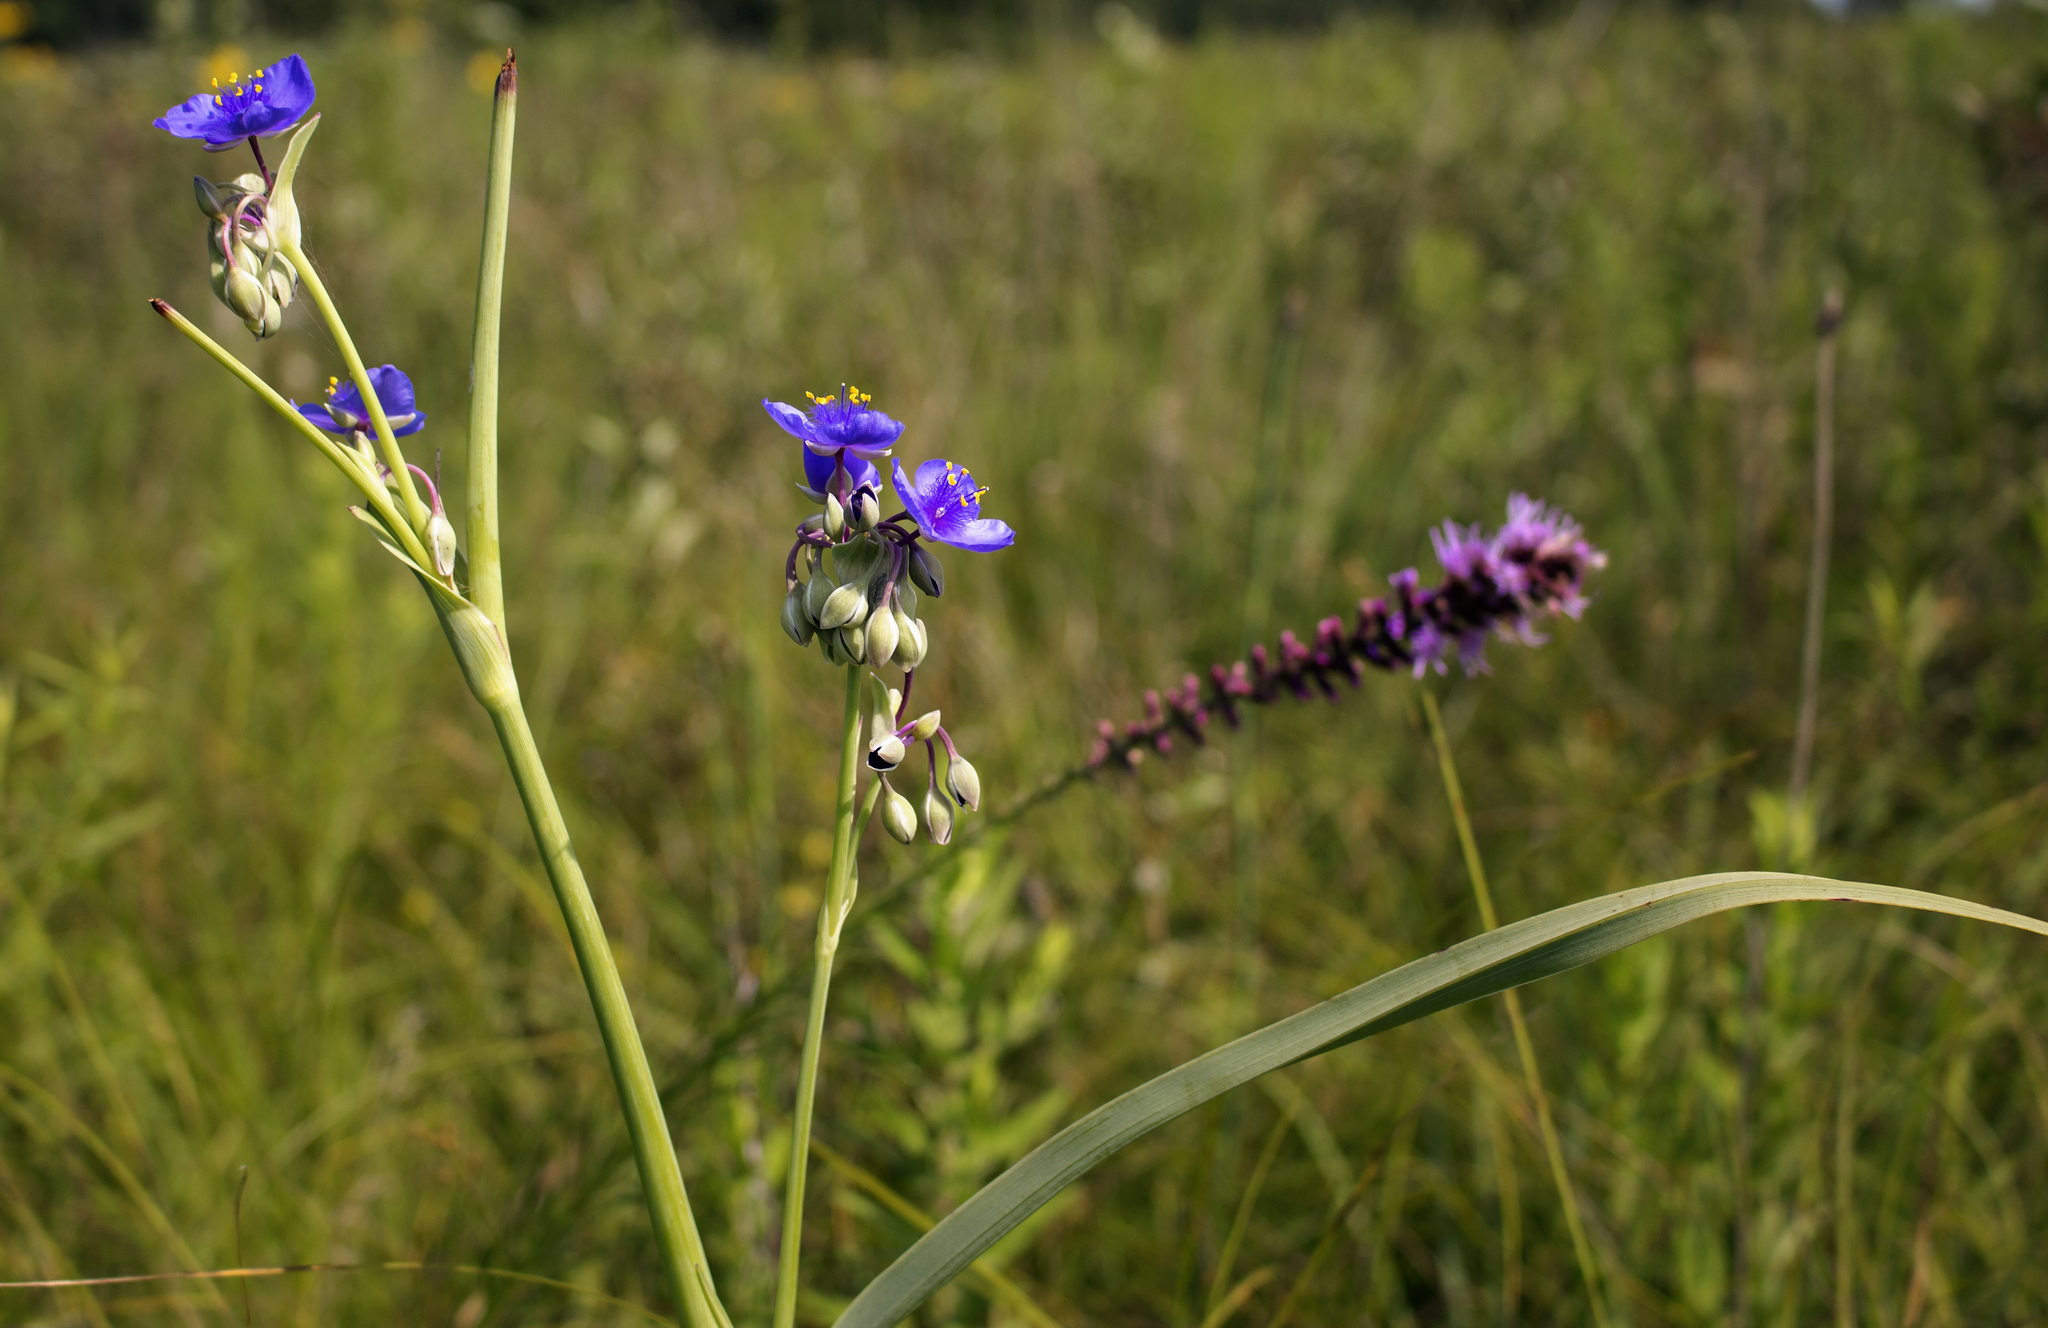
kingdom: Plantae
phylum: Tracheophyta
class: Liliopsida
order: Commelinales
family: Commelinaceae
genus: Tradescantia
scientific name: Tradescantia ohiensis
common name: Ohio spiderwort
